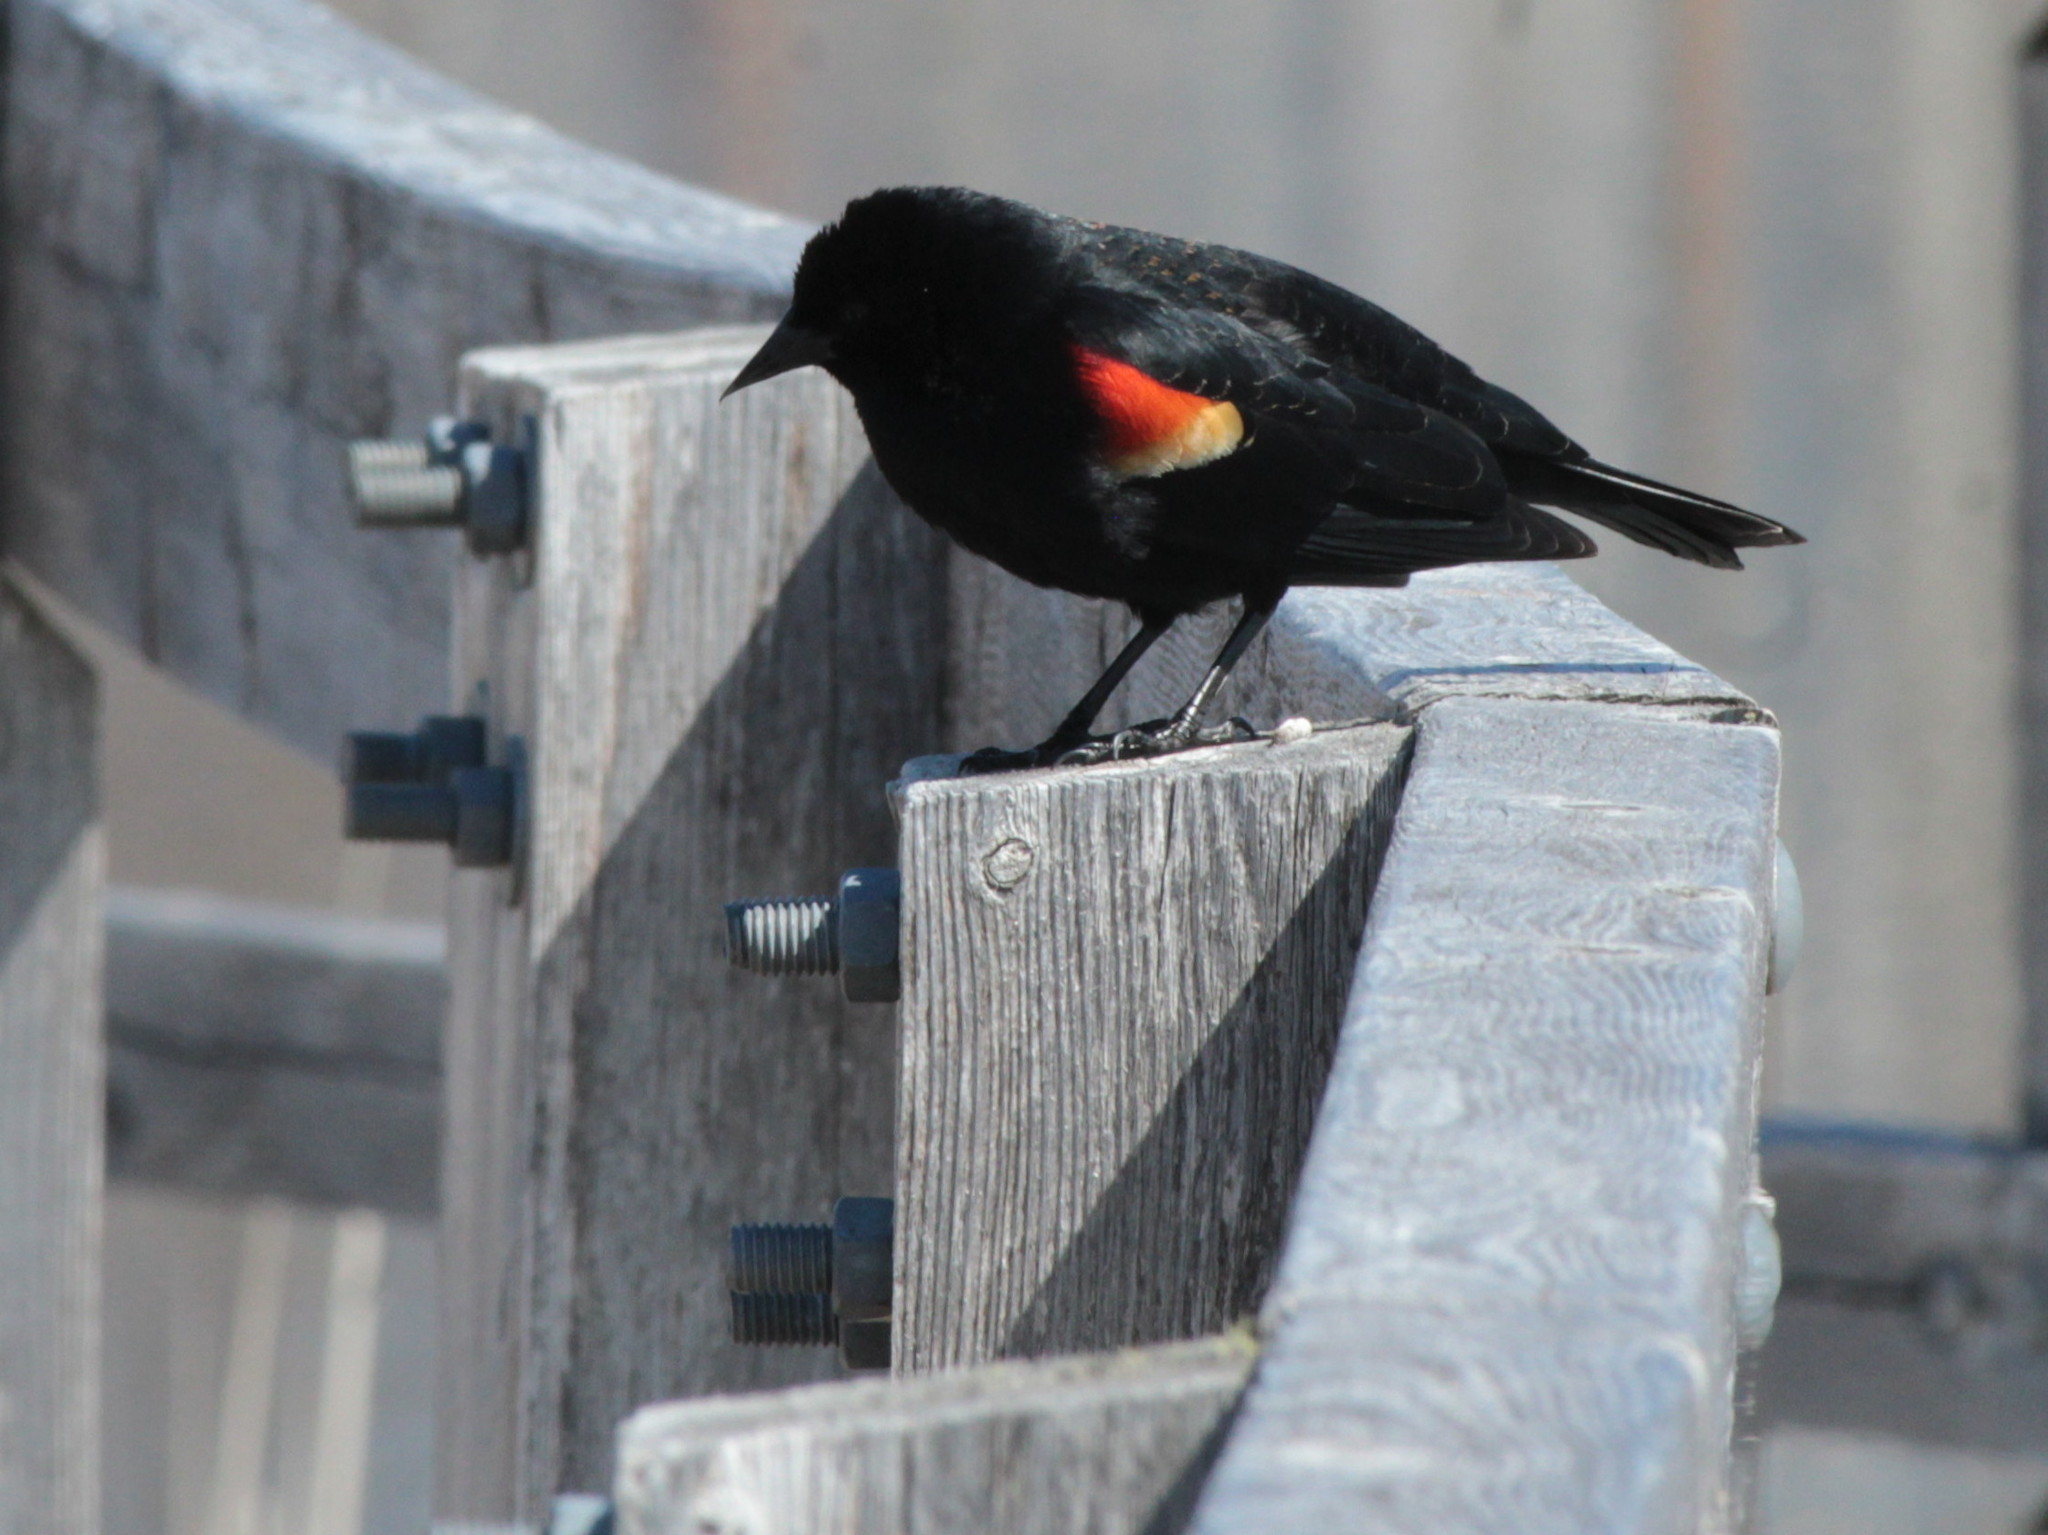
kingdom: Animalia
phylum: Chordata
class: Aves
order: Passeriformes
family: Icteridae
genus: Agelaius
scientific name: Agelaius phoeniceus
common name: Red-winged blackbird
